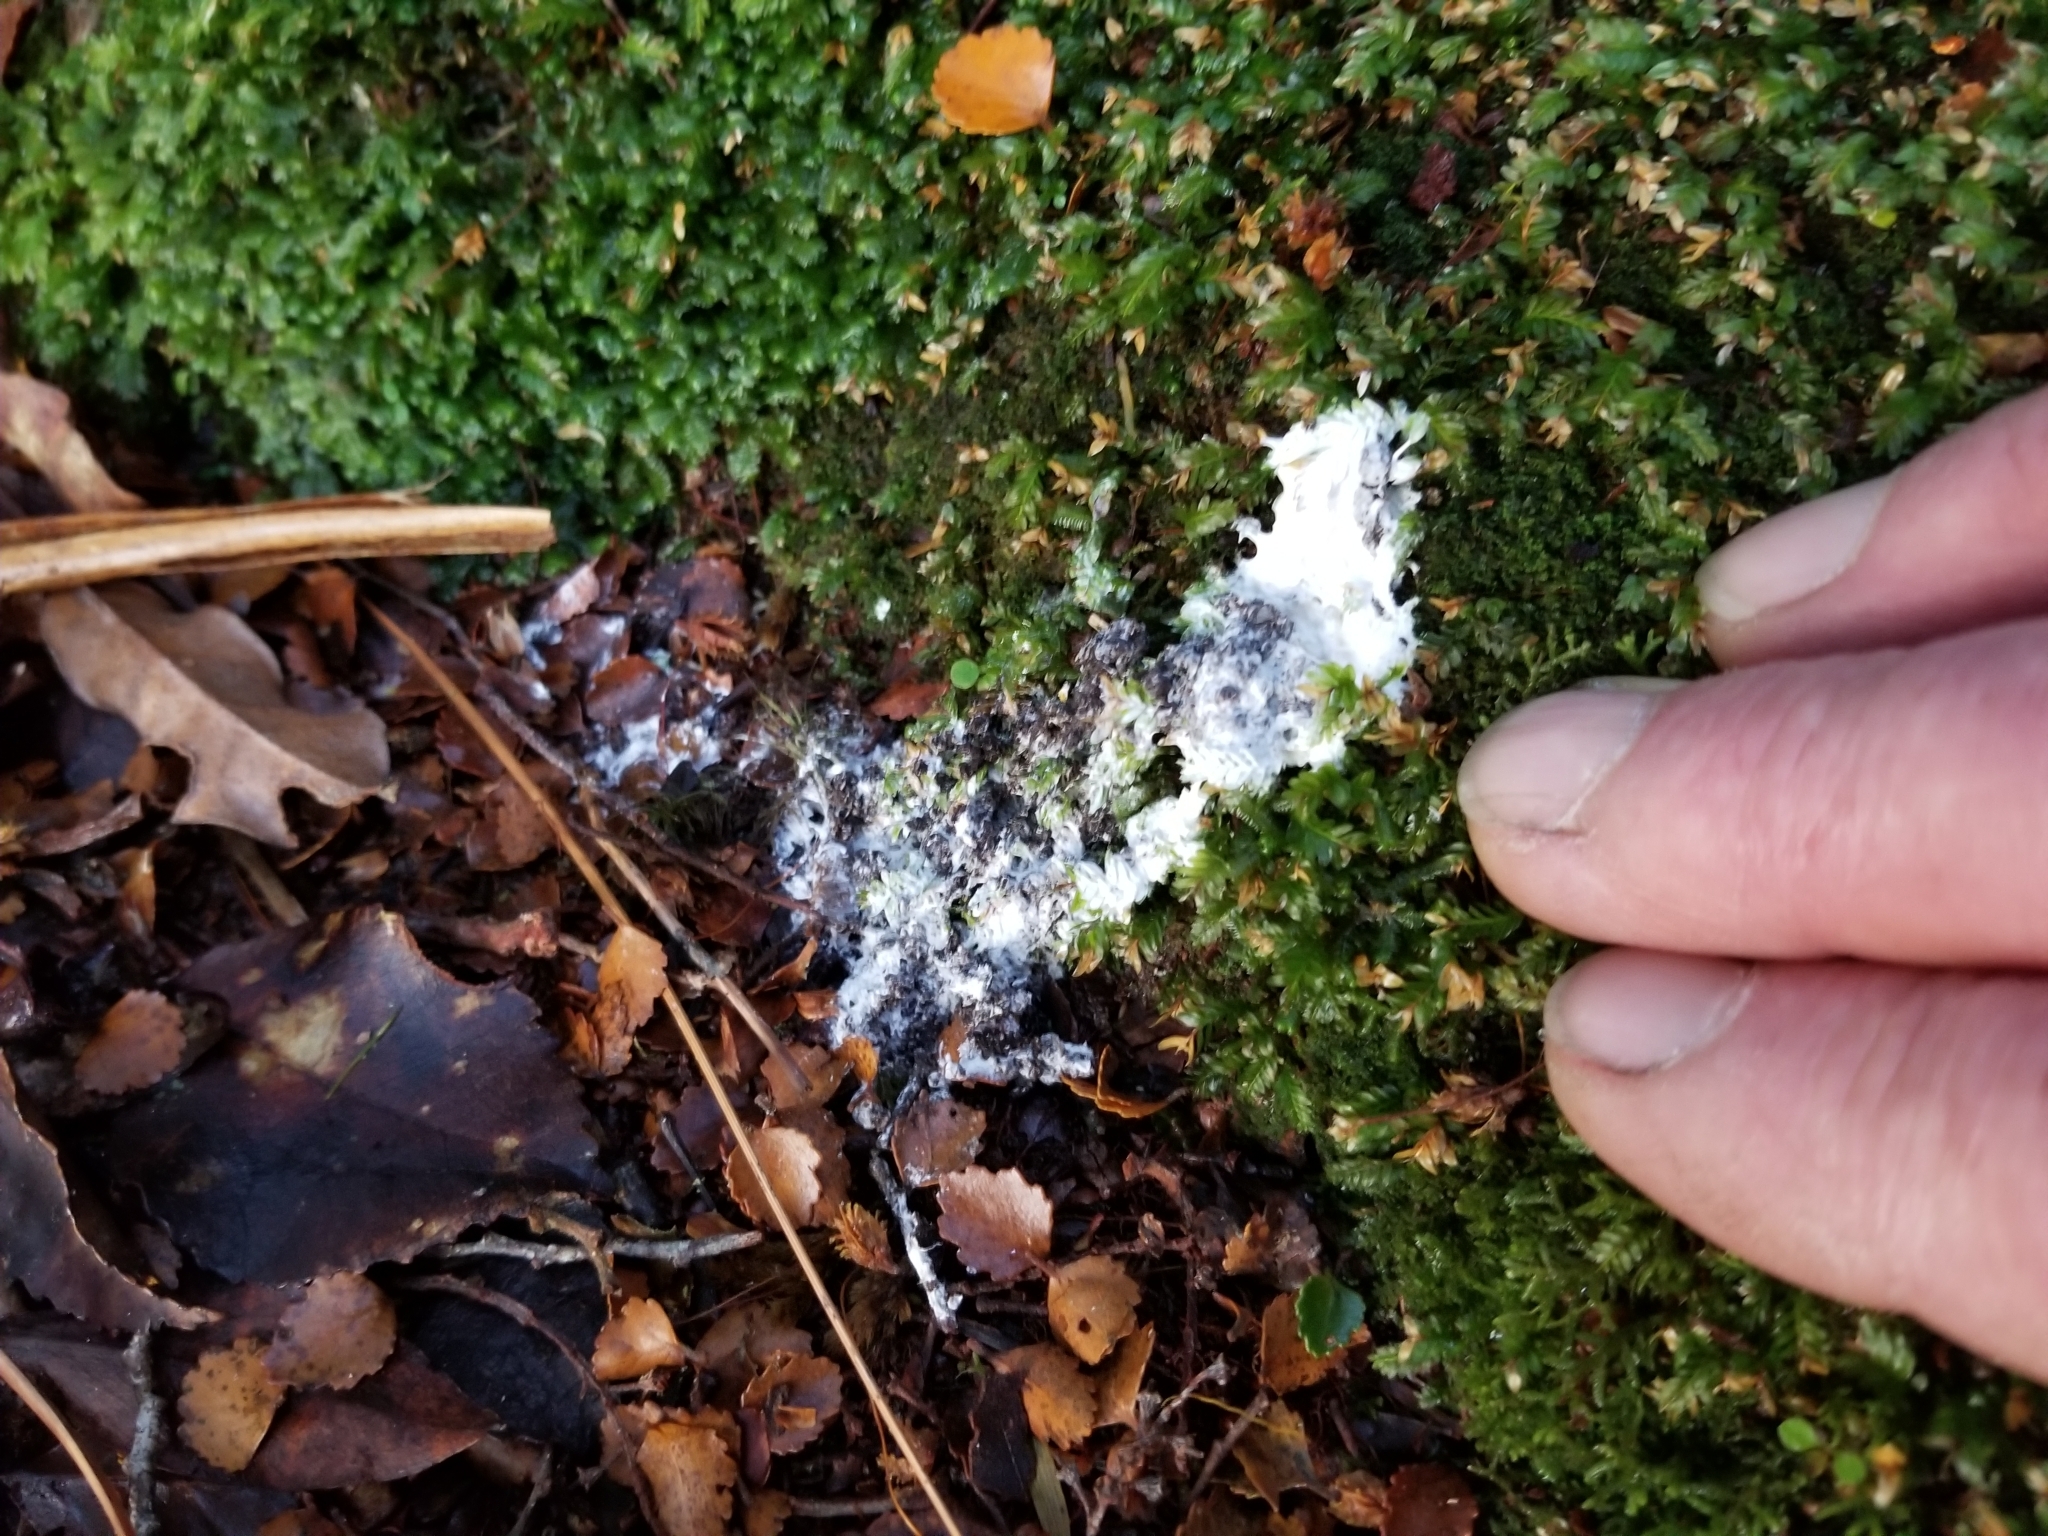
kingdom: Animalia
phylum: Chordata
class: Aves
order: Apterygiformes
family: Apterygidae
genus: Apteryx
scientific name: Apteryx haastii
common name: Great spotted kiwi
